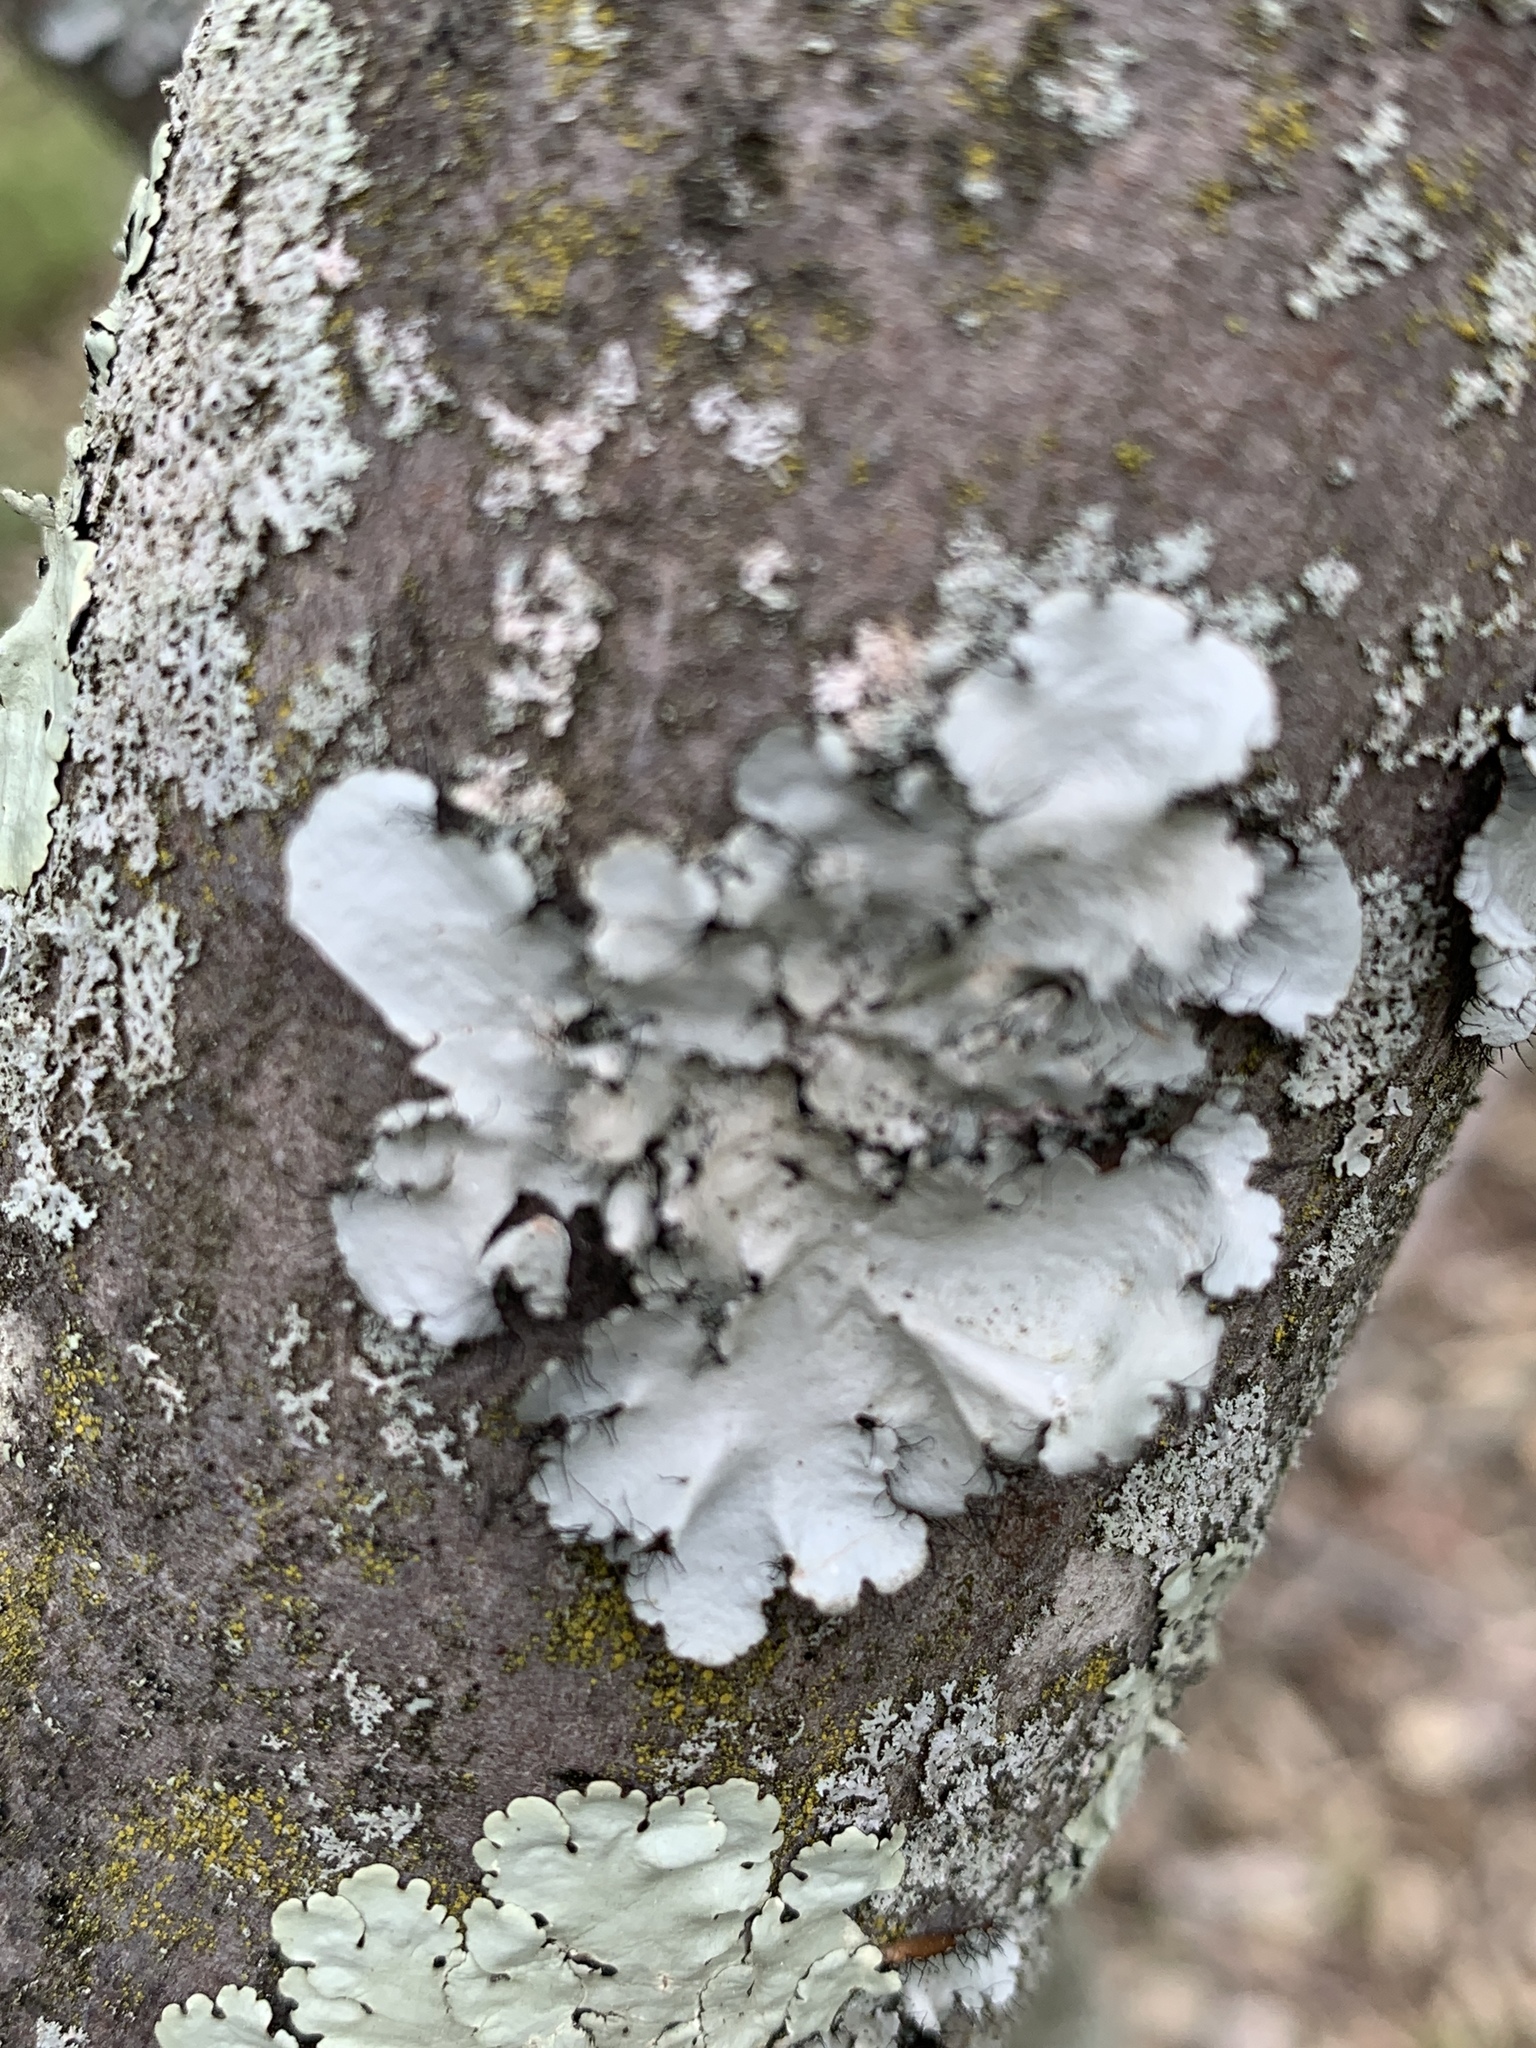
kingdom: Fungi
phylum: Ascomycota
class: Lecanoromycetes
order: Lecanorales
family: Parmeliaceae
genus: Parmotrema
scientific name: Parmotrema hypotropum
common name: Powdered ruffle lichen
